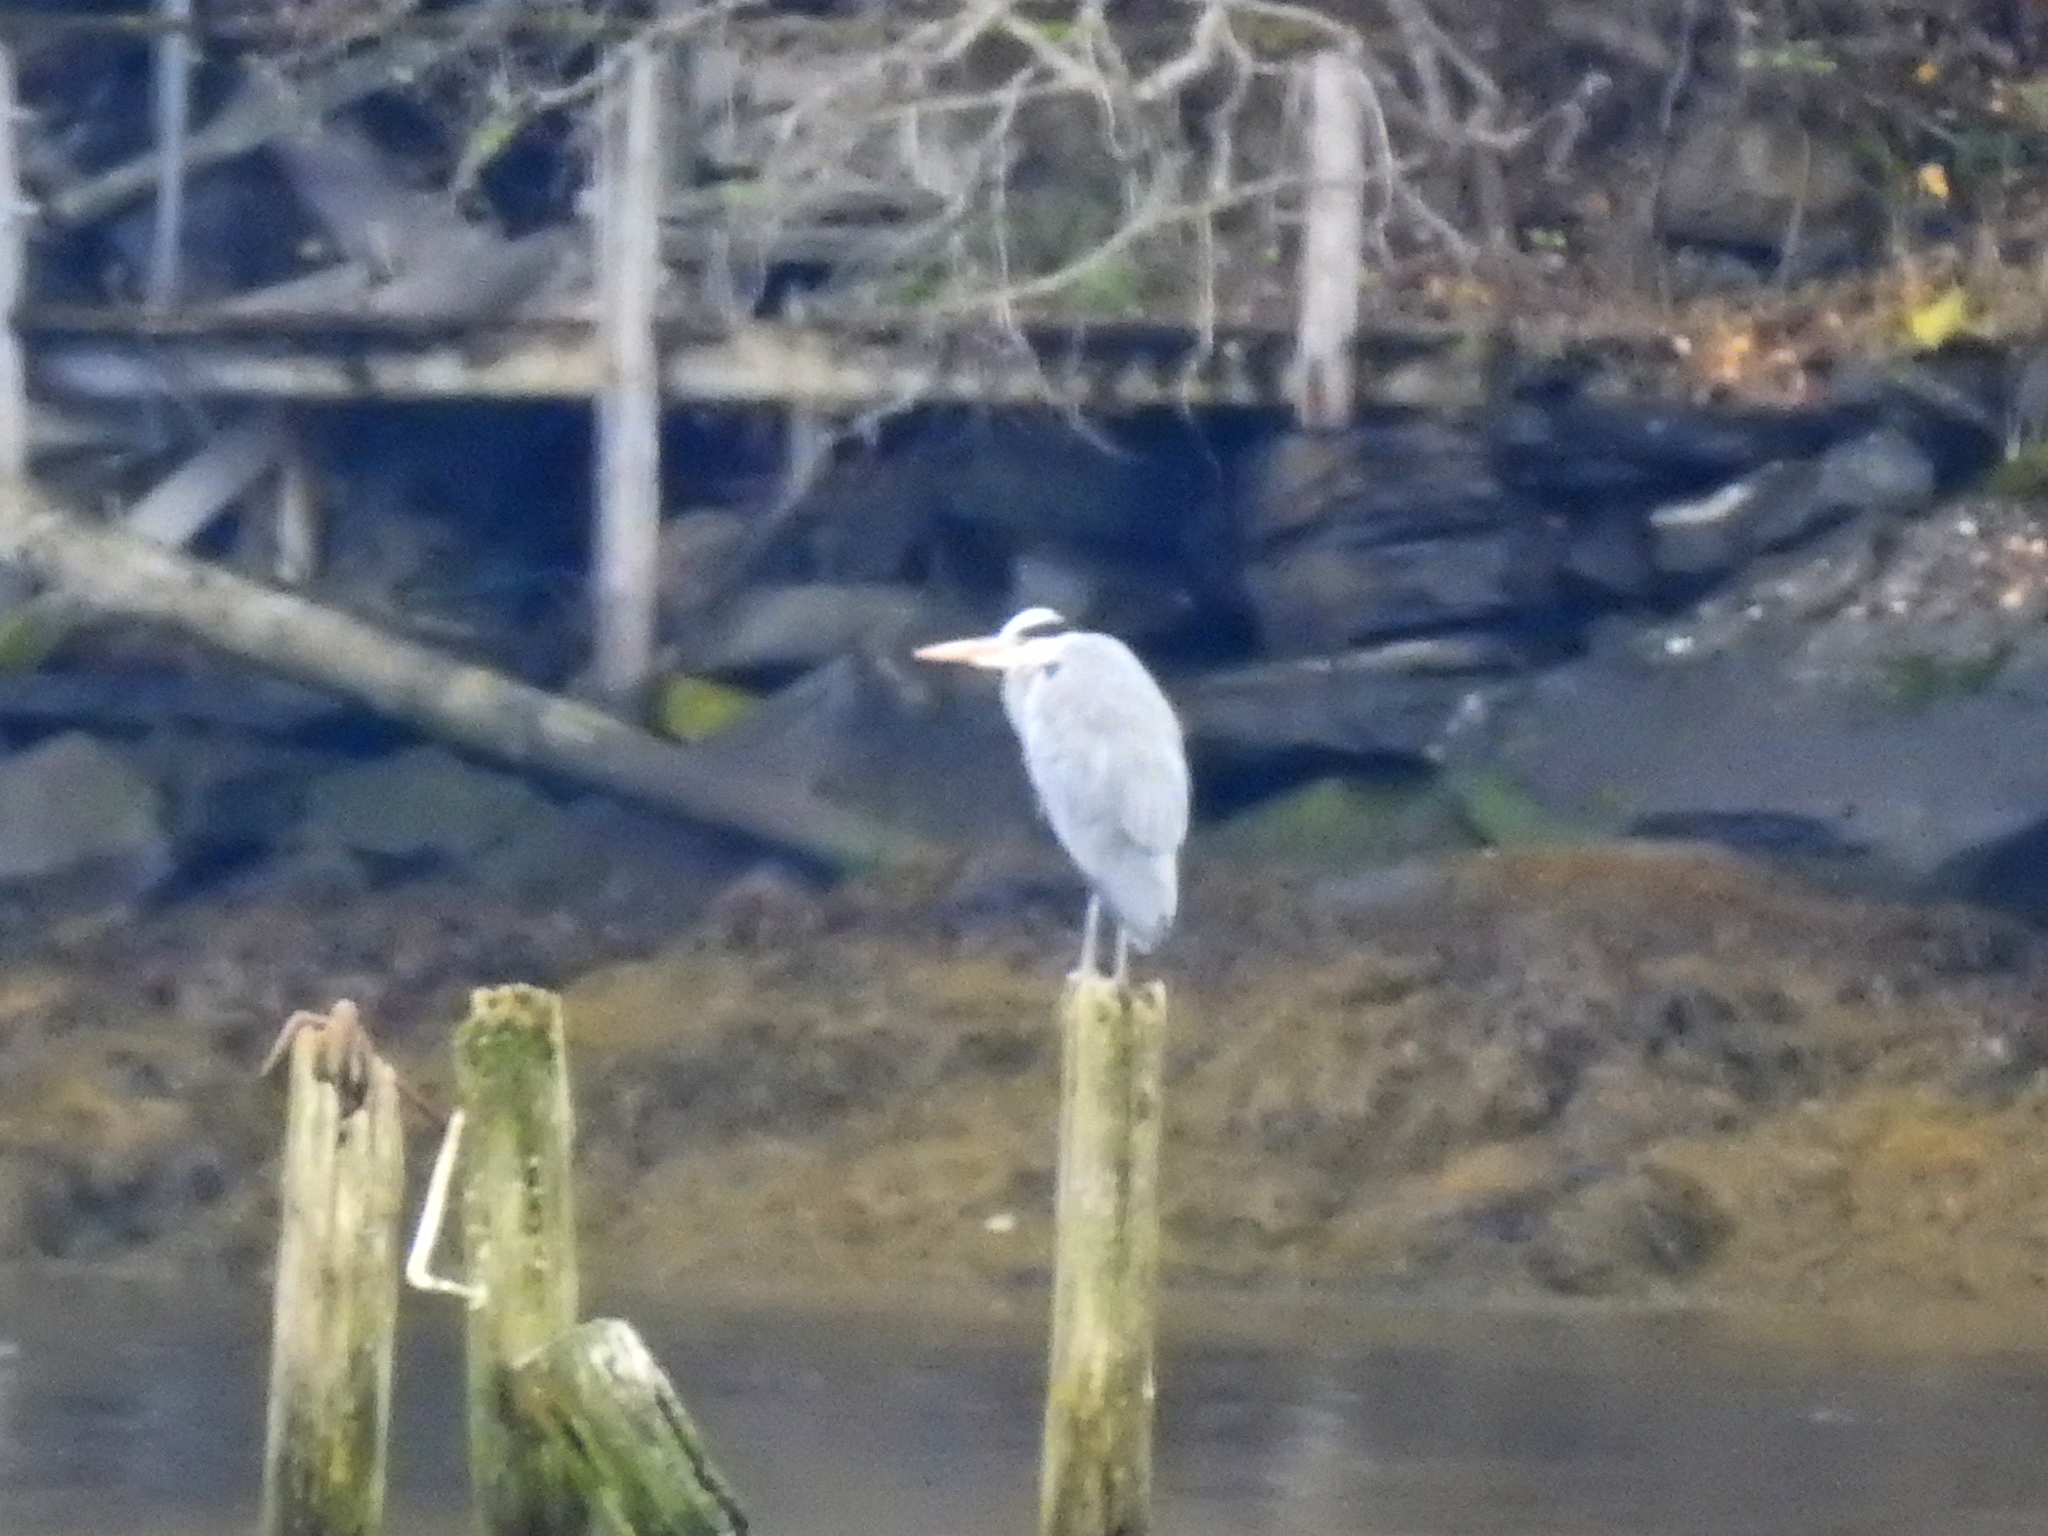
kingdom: Animalia
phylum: Chordata
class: Aves
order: Pelecaniformes
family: Ardeidae
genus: Ardea
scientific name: Ardea cinerea
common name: Grey heron
